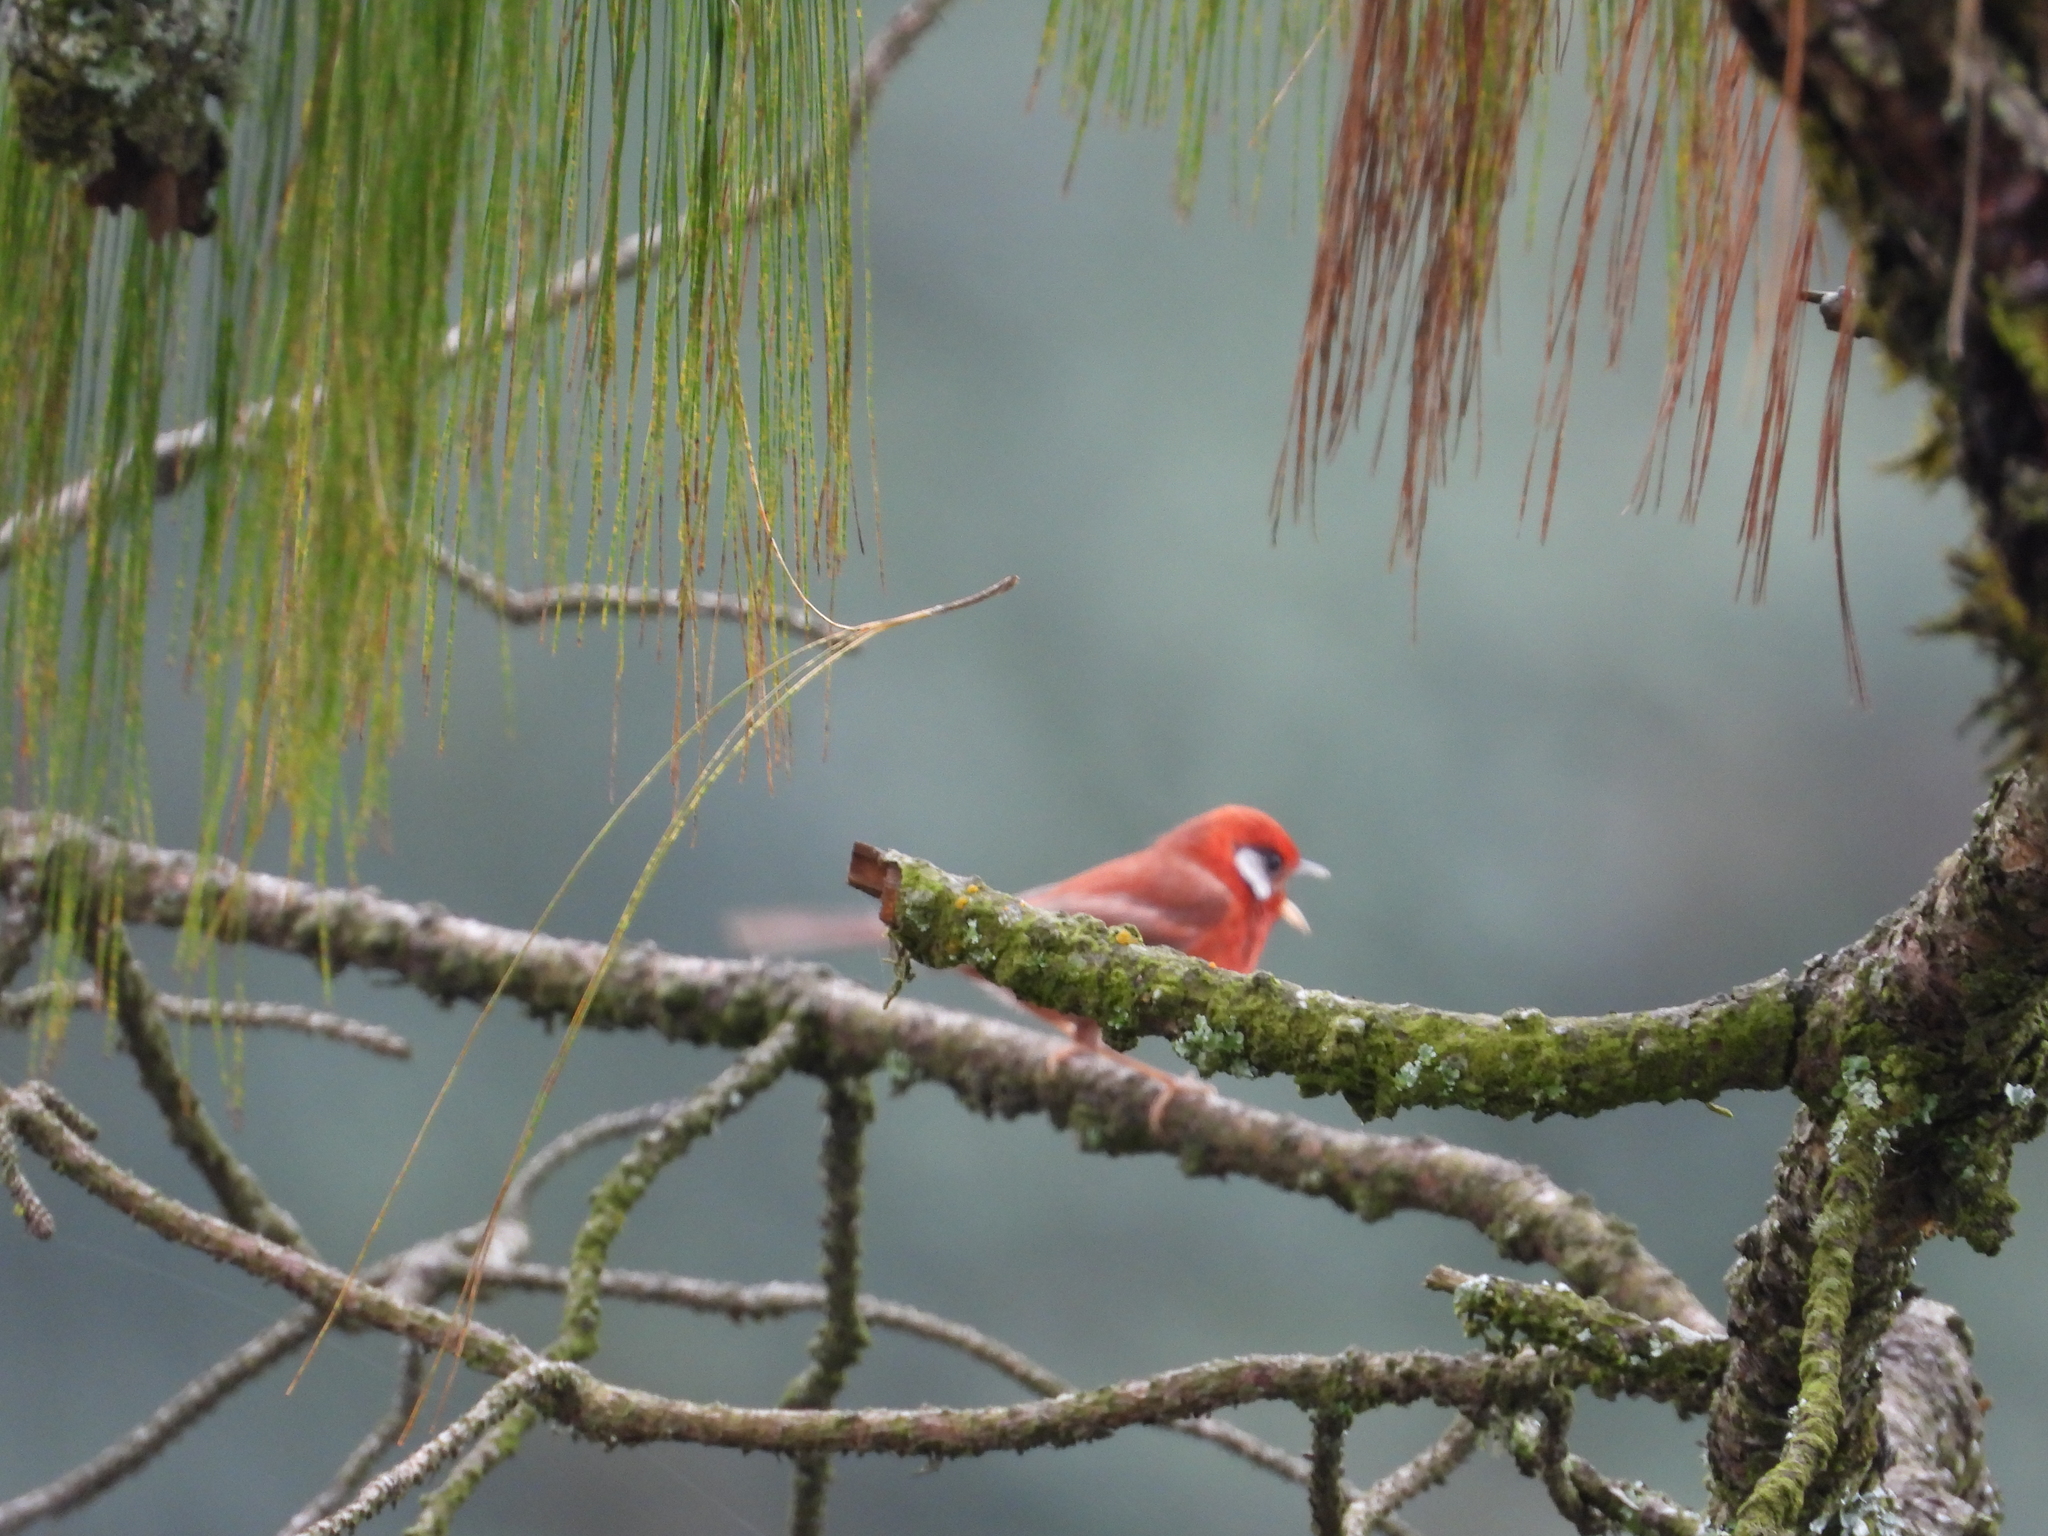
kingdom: Animalia
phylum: Chordata
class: Aves
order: Passeriformes
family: Parulidae
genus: Cardellina
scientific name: Cardellina rubra
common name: Red warbler
